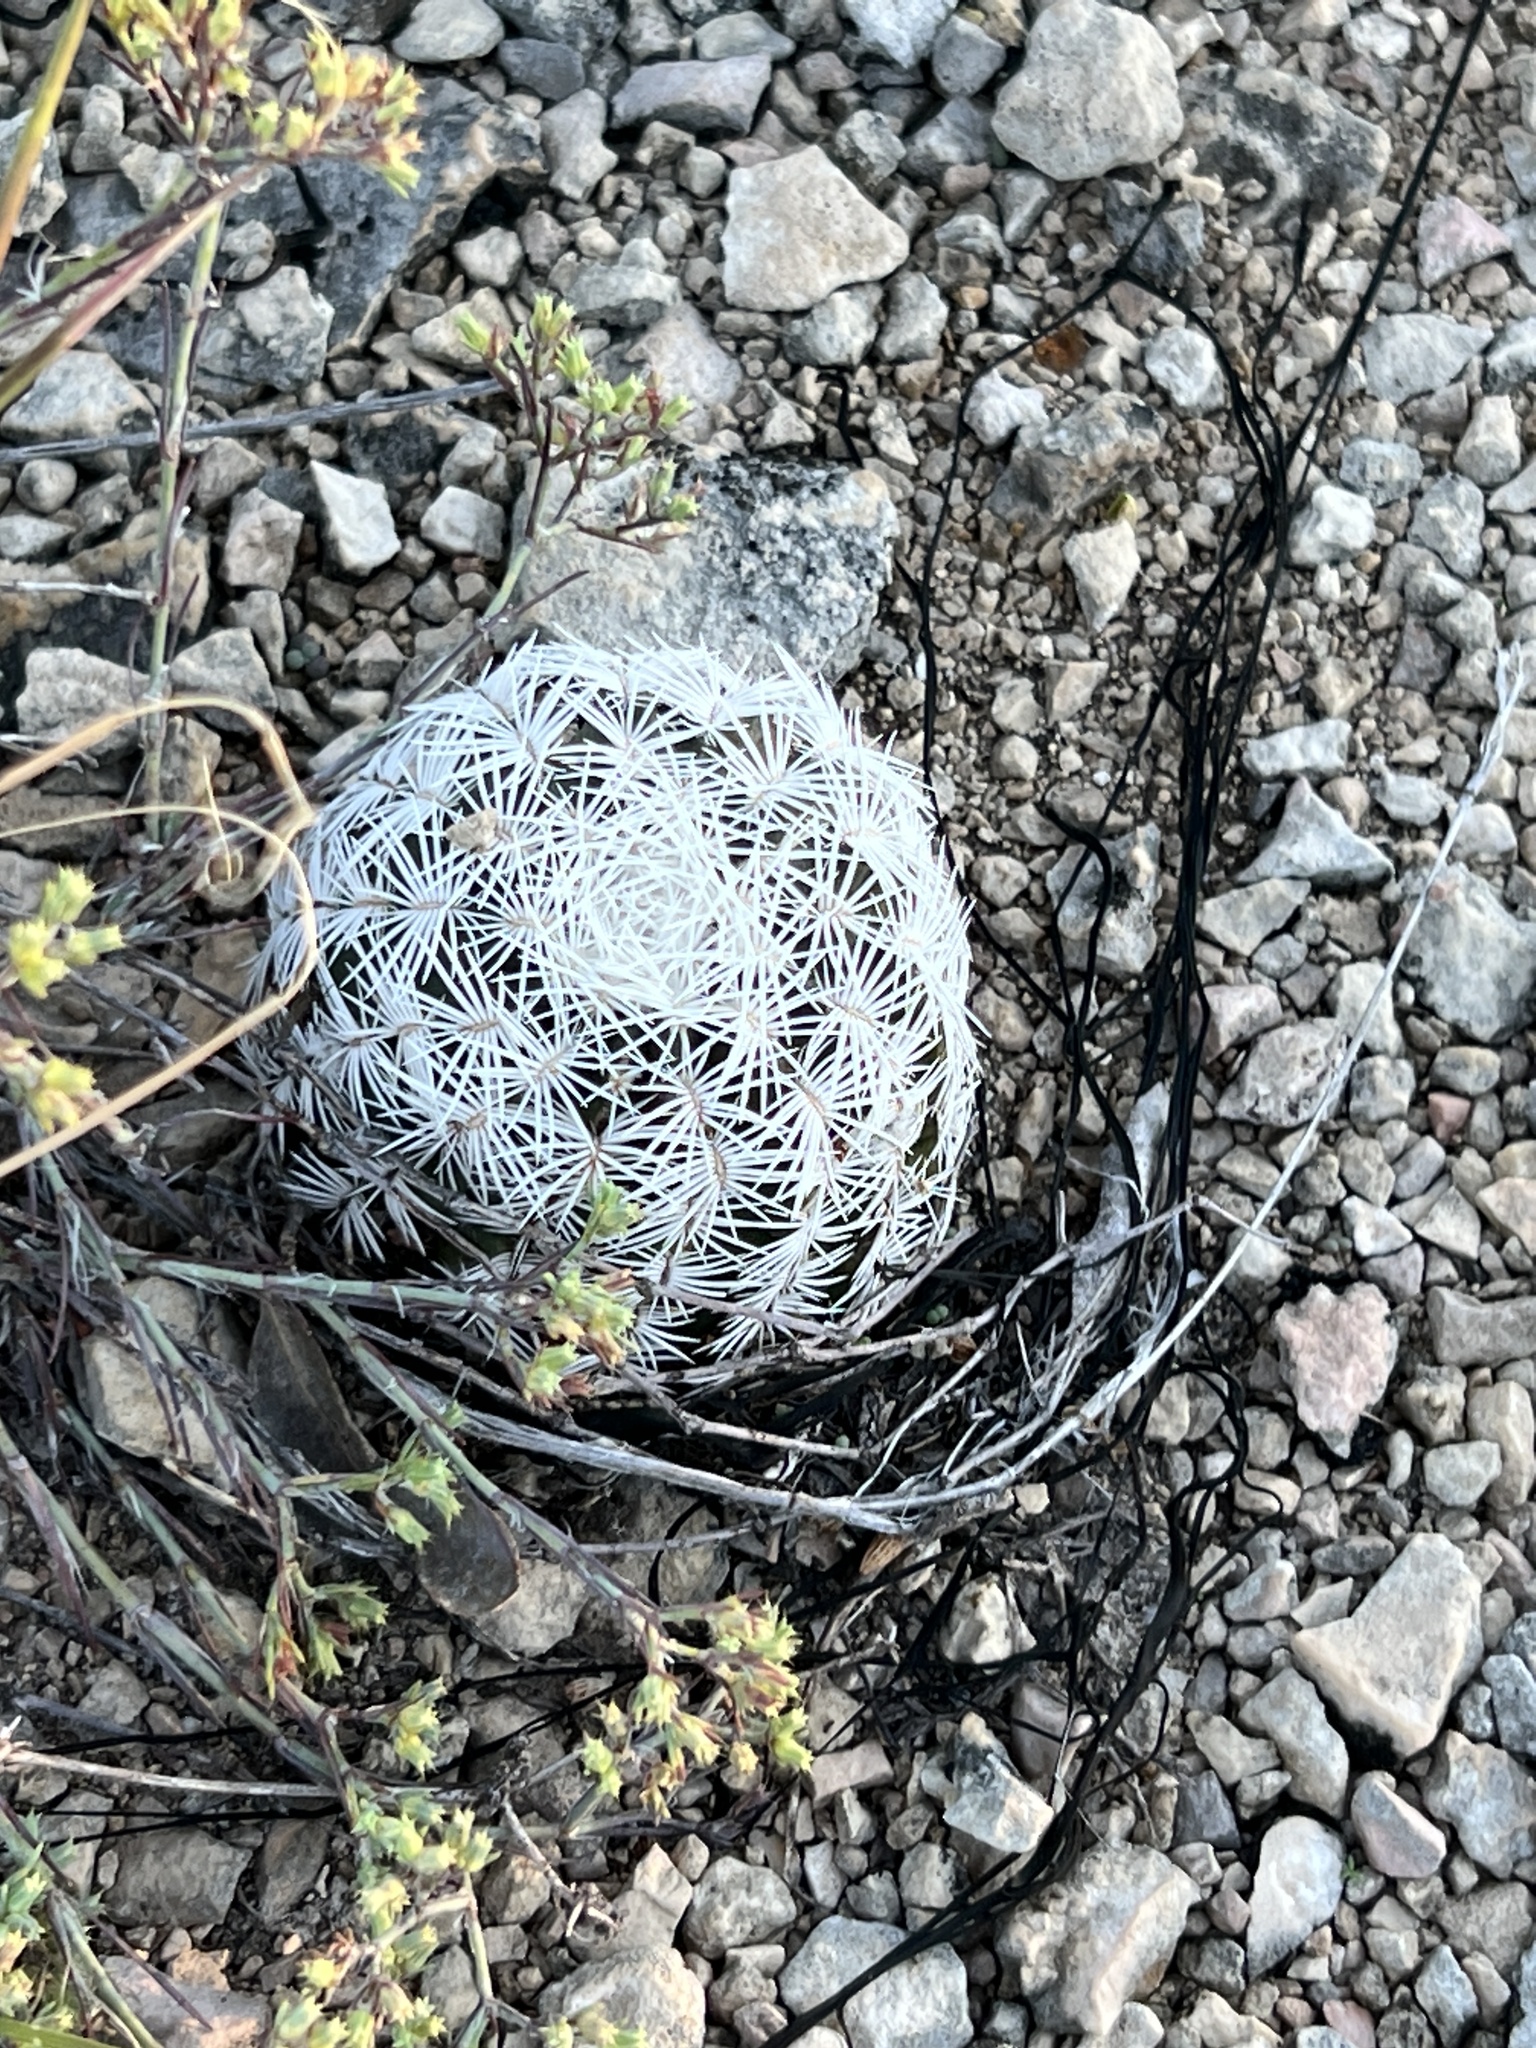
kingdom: Plantae
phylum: Tracheophyta
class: Magnoliopsida
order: Caryophyllales
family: Cactaceae
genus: Echinocereus
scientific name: Echinocereus reichenbachii
